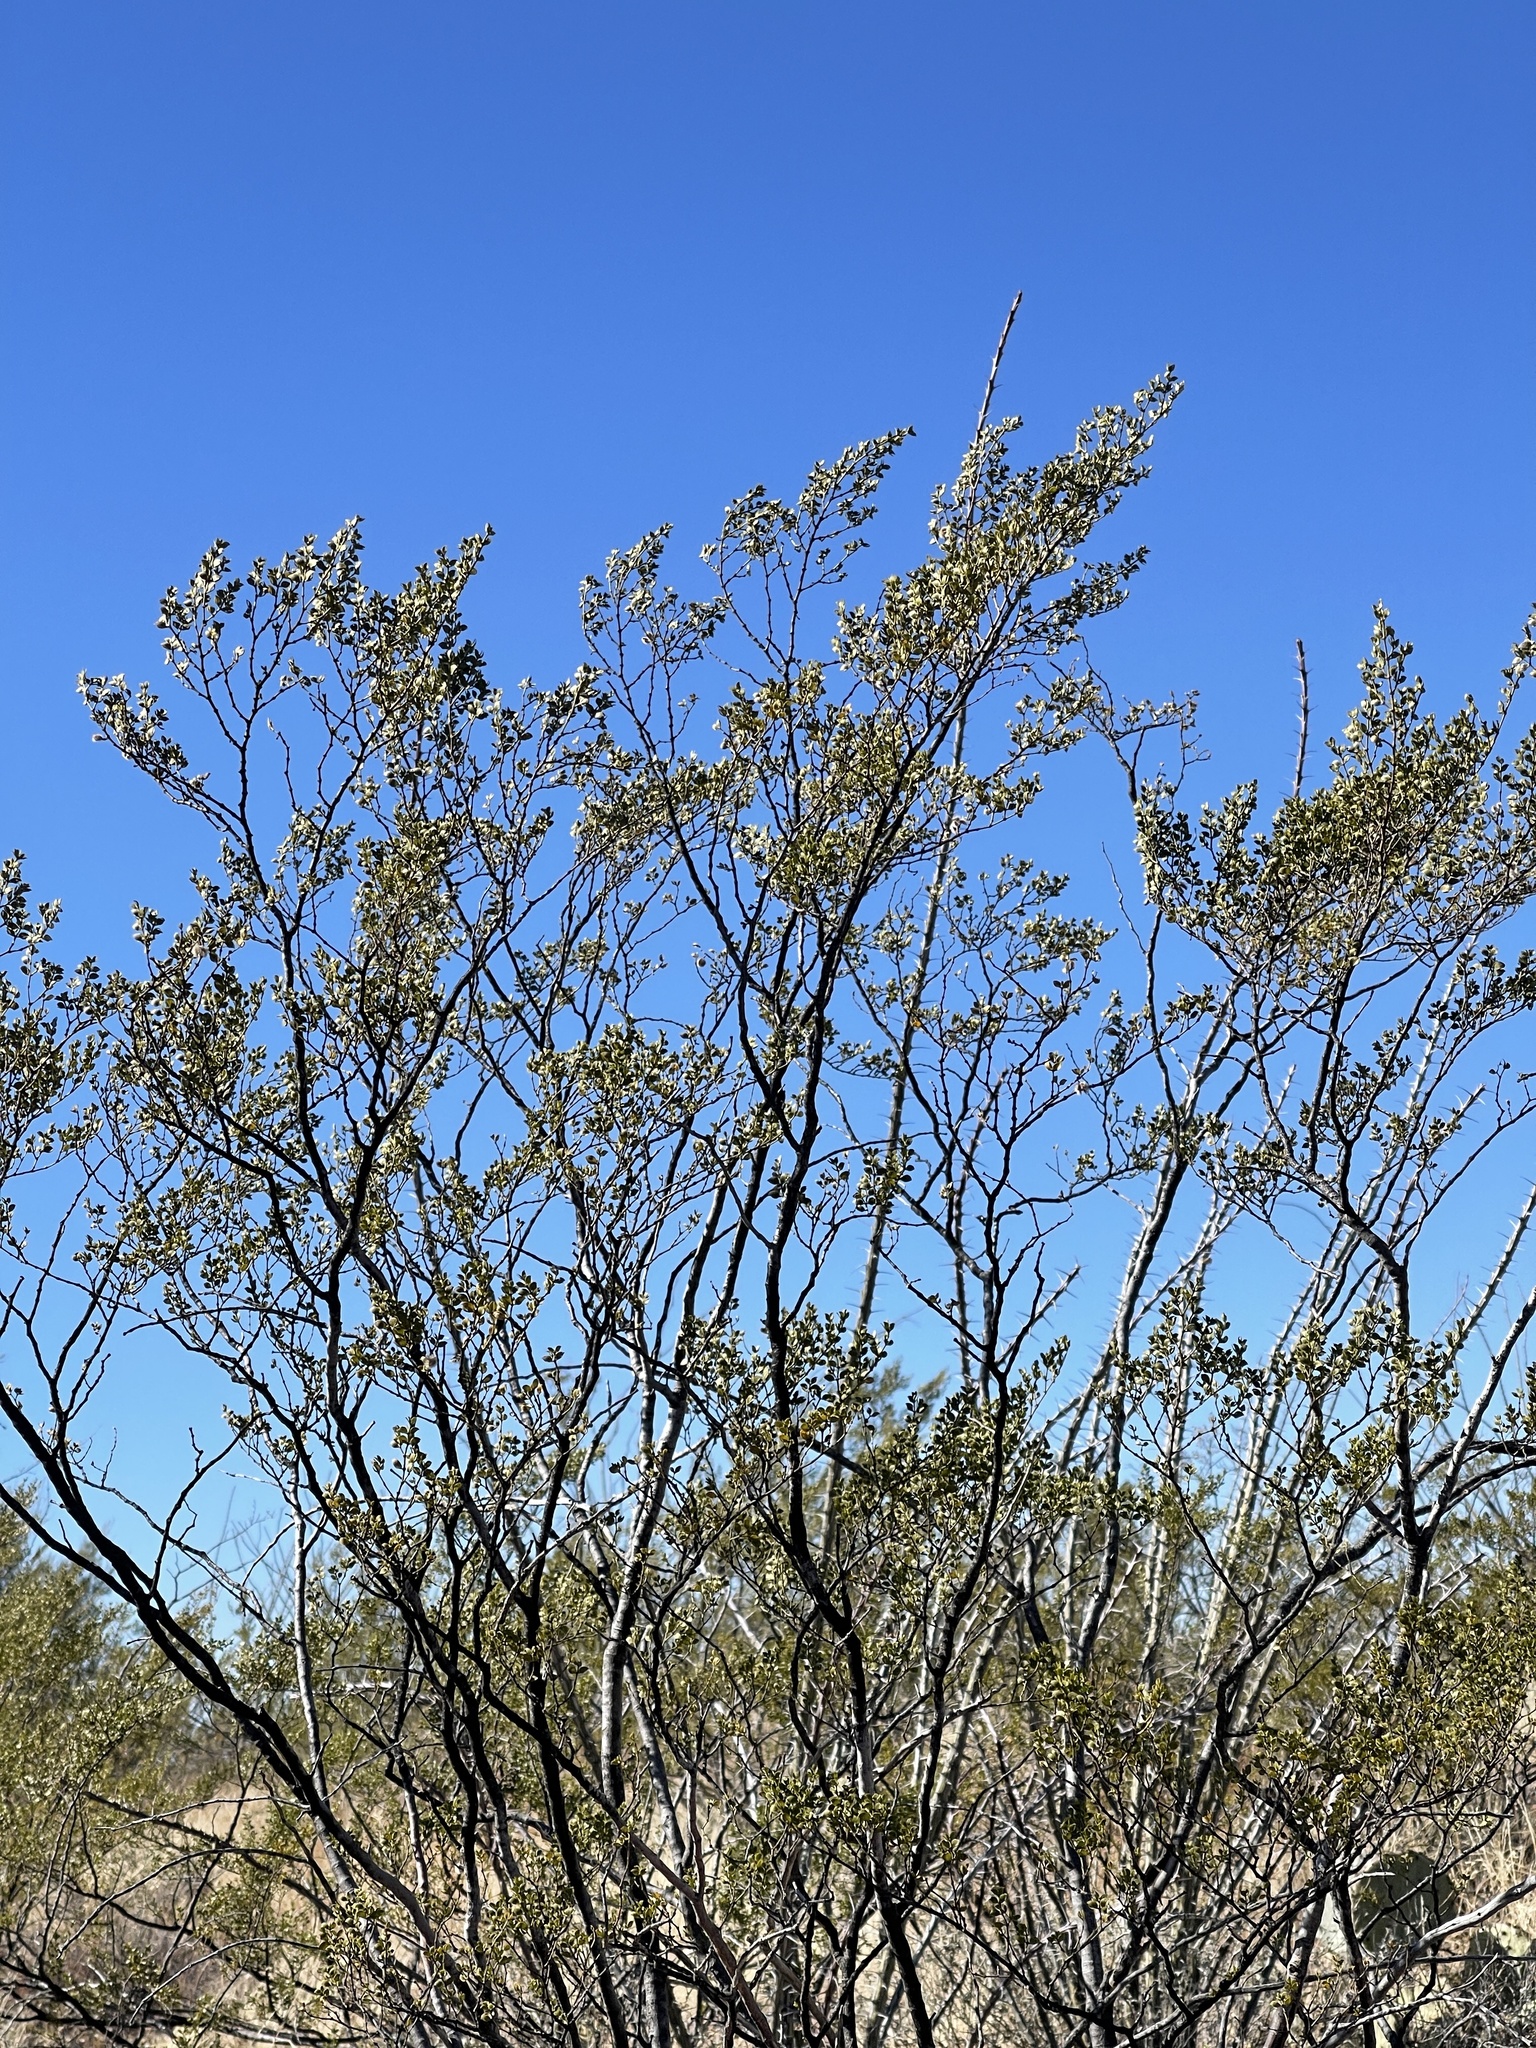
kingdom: Plantae
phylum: Tracheophyta
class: Magnoliopsida
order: Zygophyllales
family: Zygophyllaceae
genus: Larrea
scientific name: Larrea tridentata
